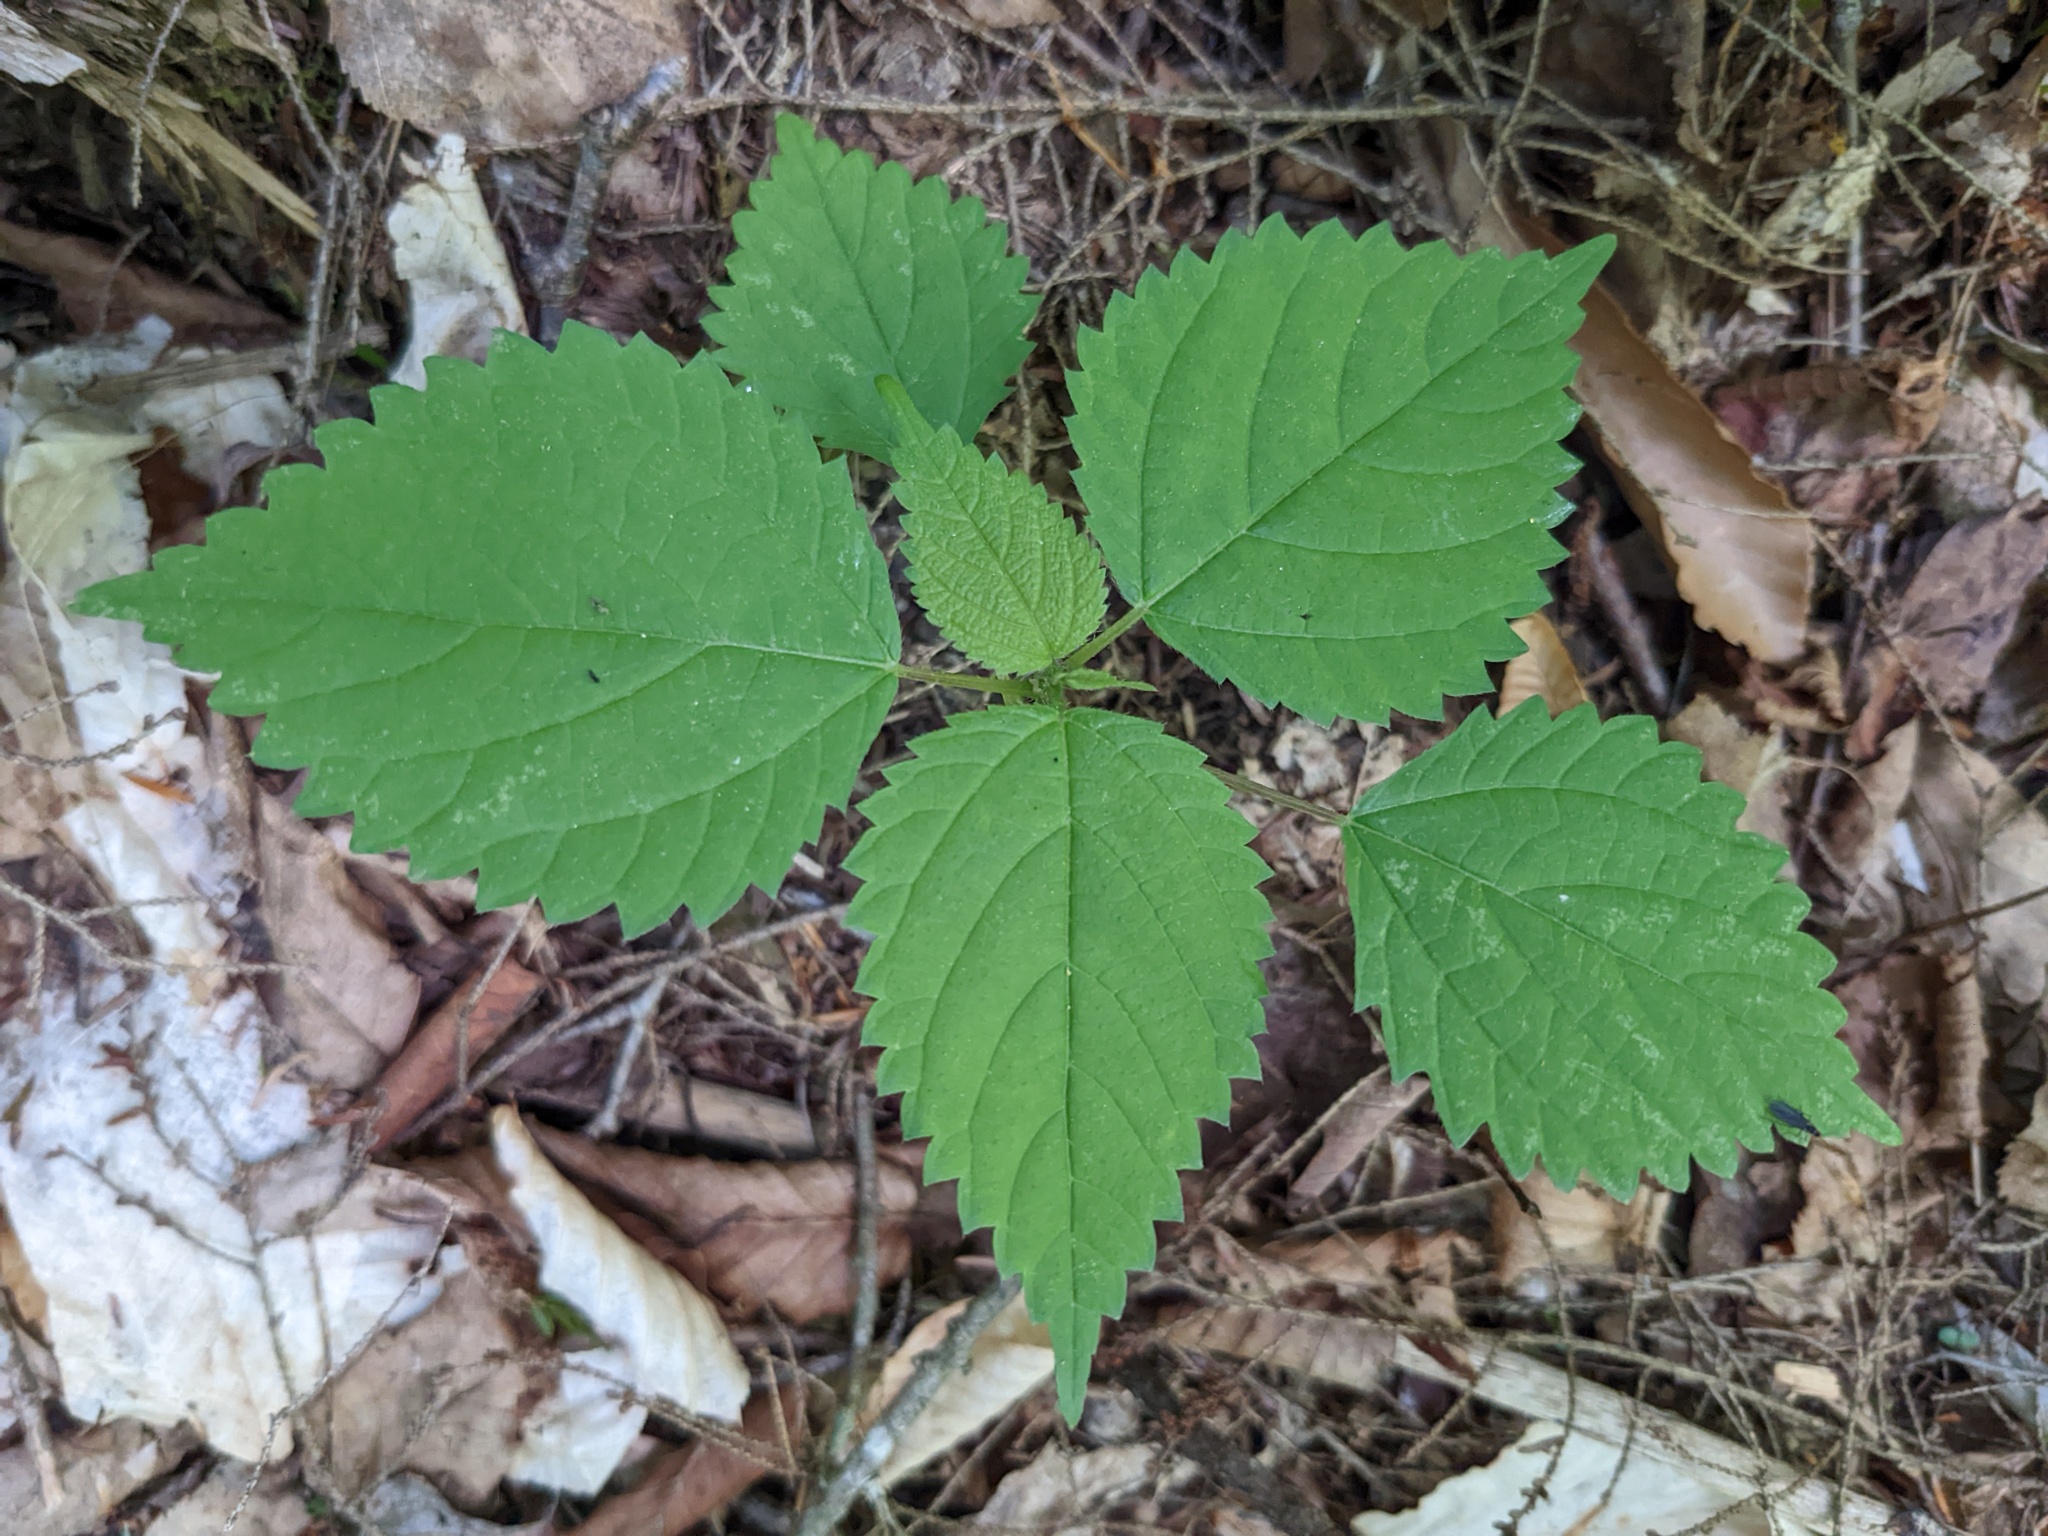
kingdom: Plantae
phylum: Tracheophyta
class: Magnoliopsida
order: Rosales
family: Urticaceae
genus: Laportea
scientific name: Laportea canadensis
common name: Canada nettle
